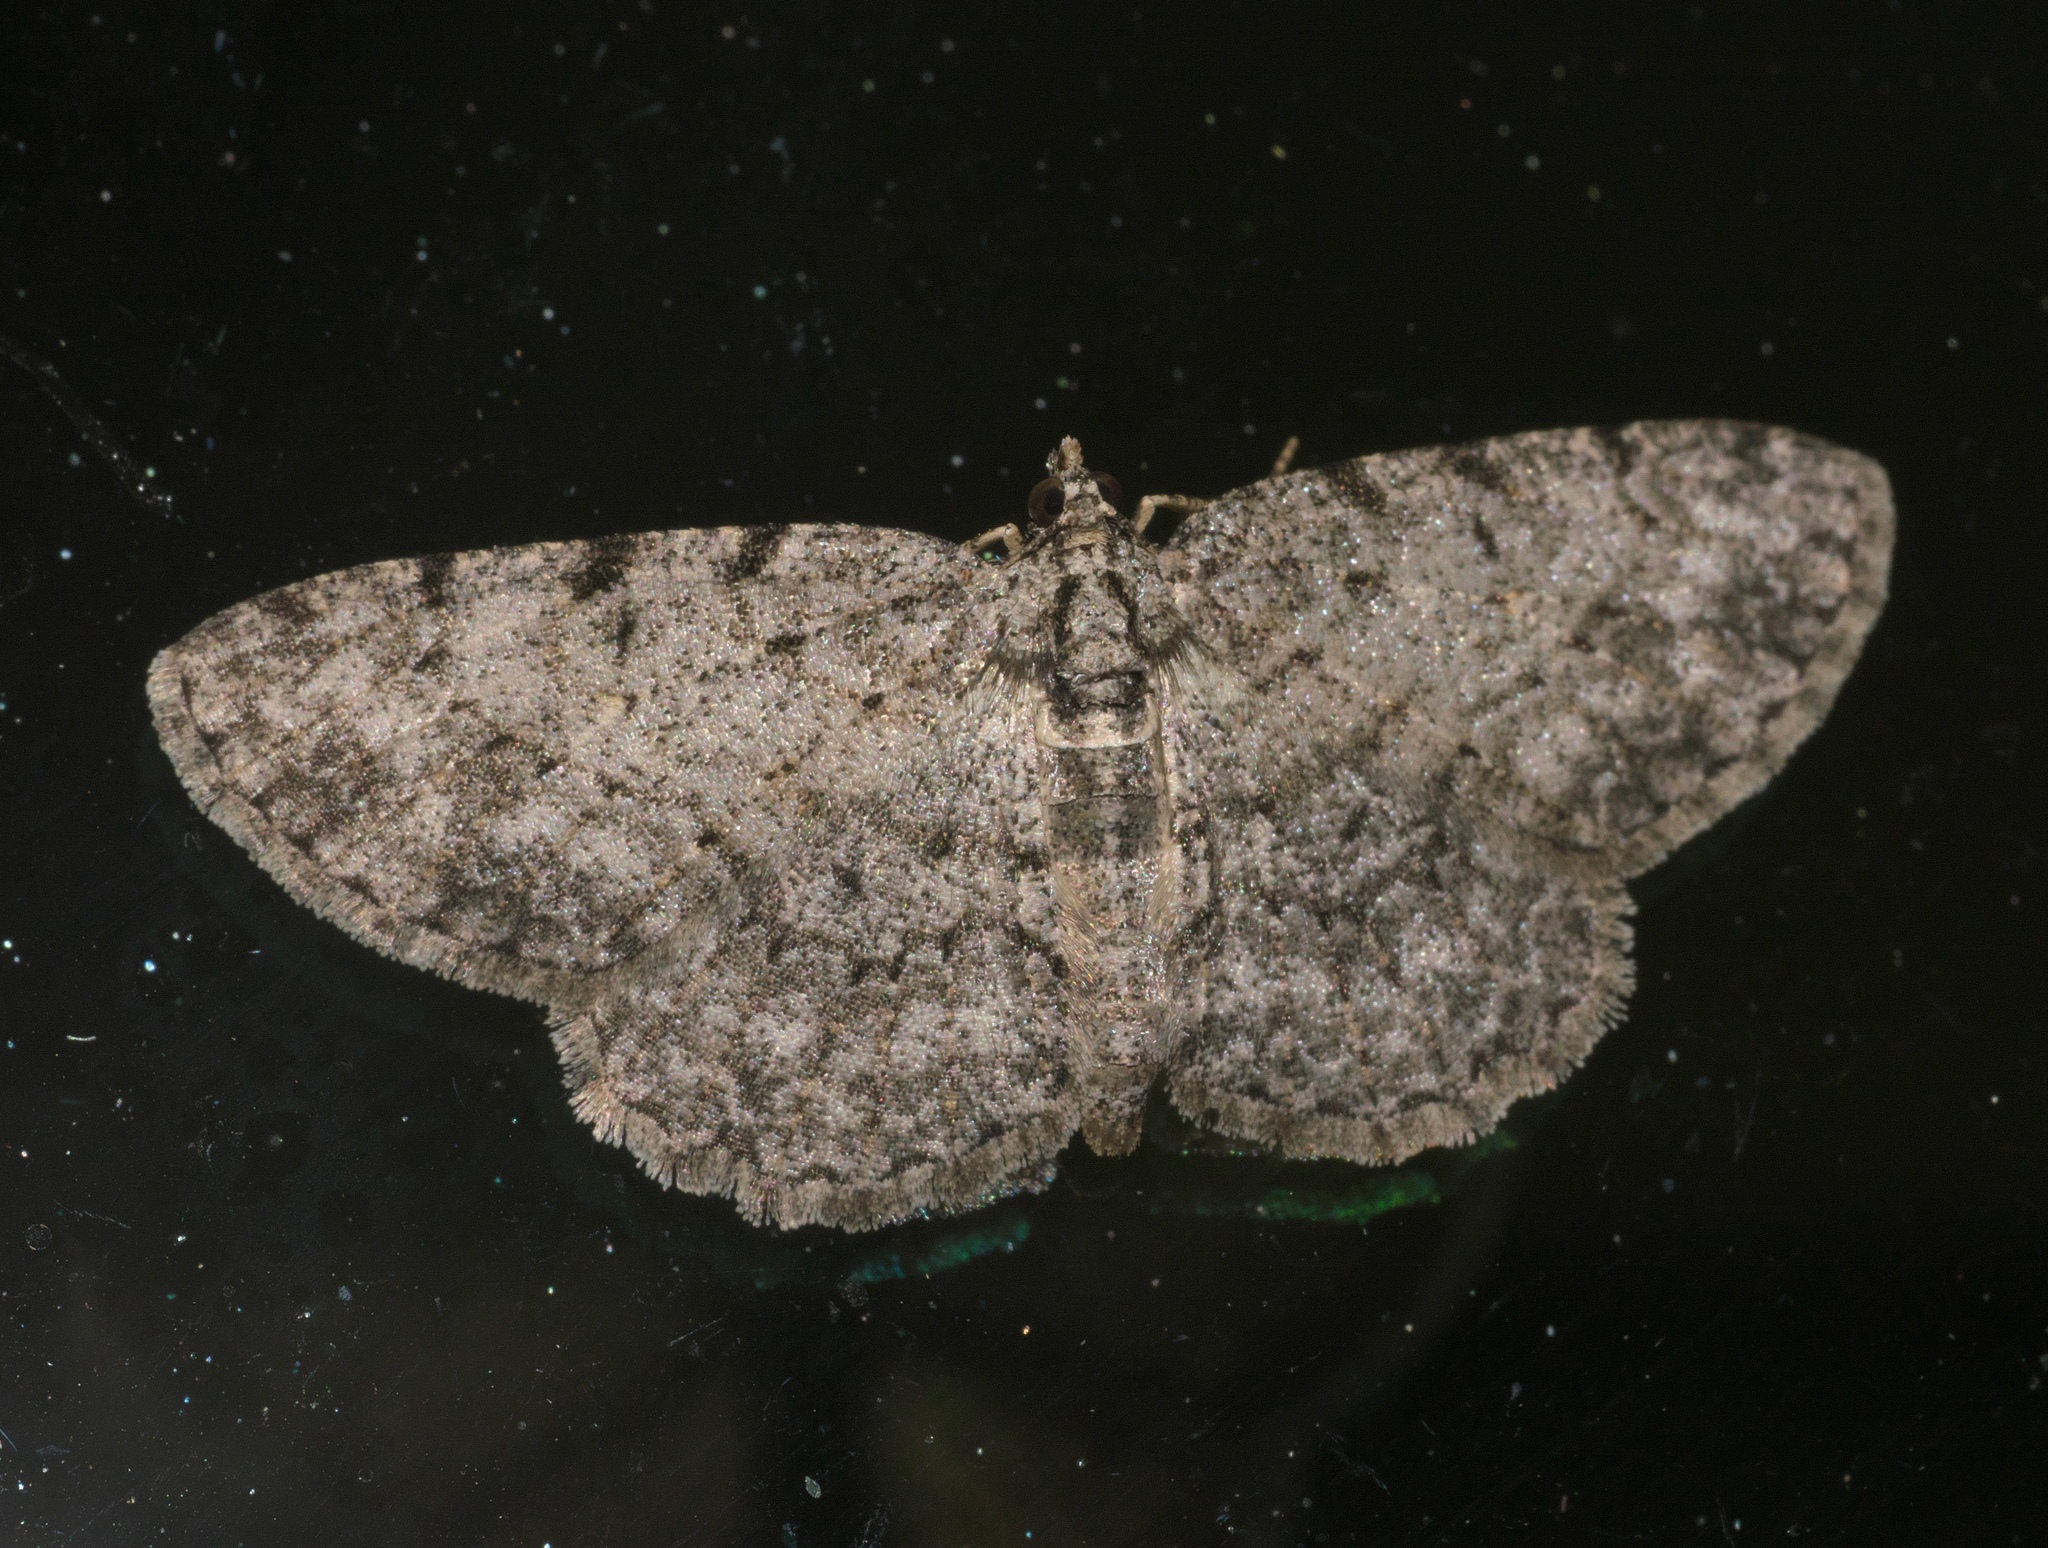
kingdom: Animalia
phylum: Arthropoda
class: Insecta
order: Lepidoptera
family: Geometridae
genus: Protoboarmia
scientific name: Protoboarmia porcelaria
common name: Porcelain gray
